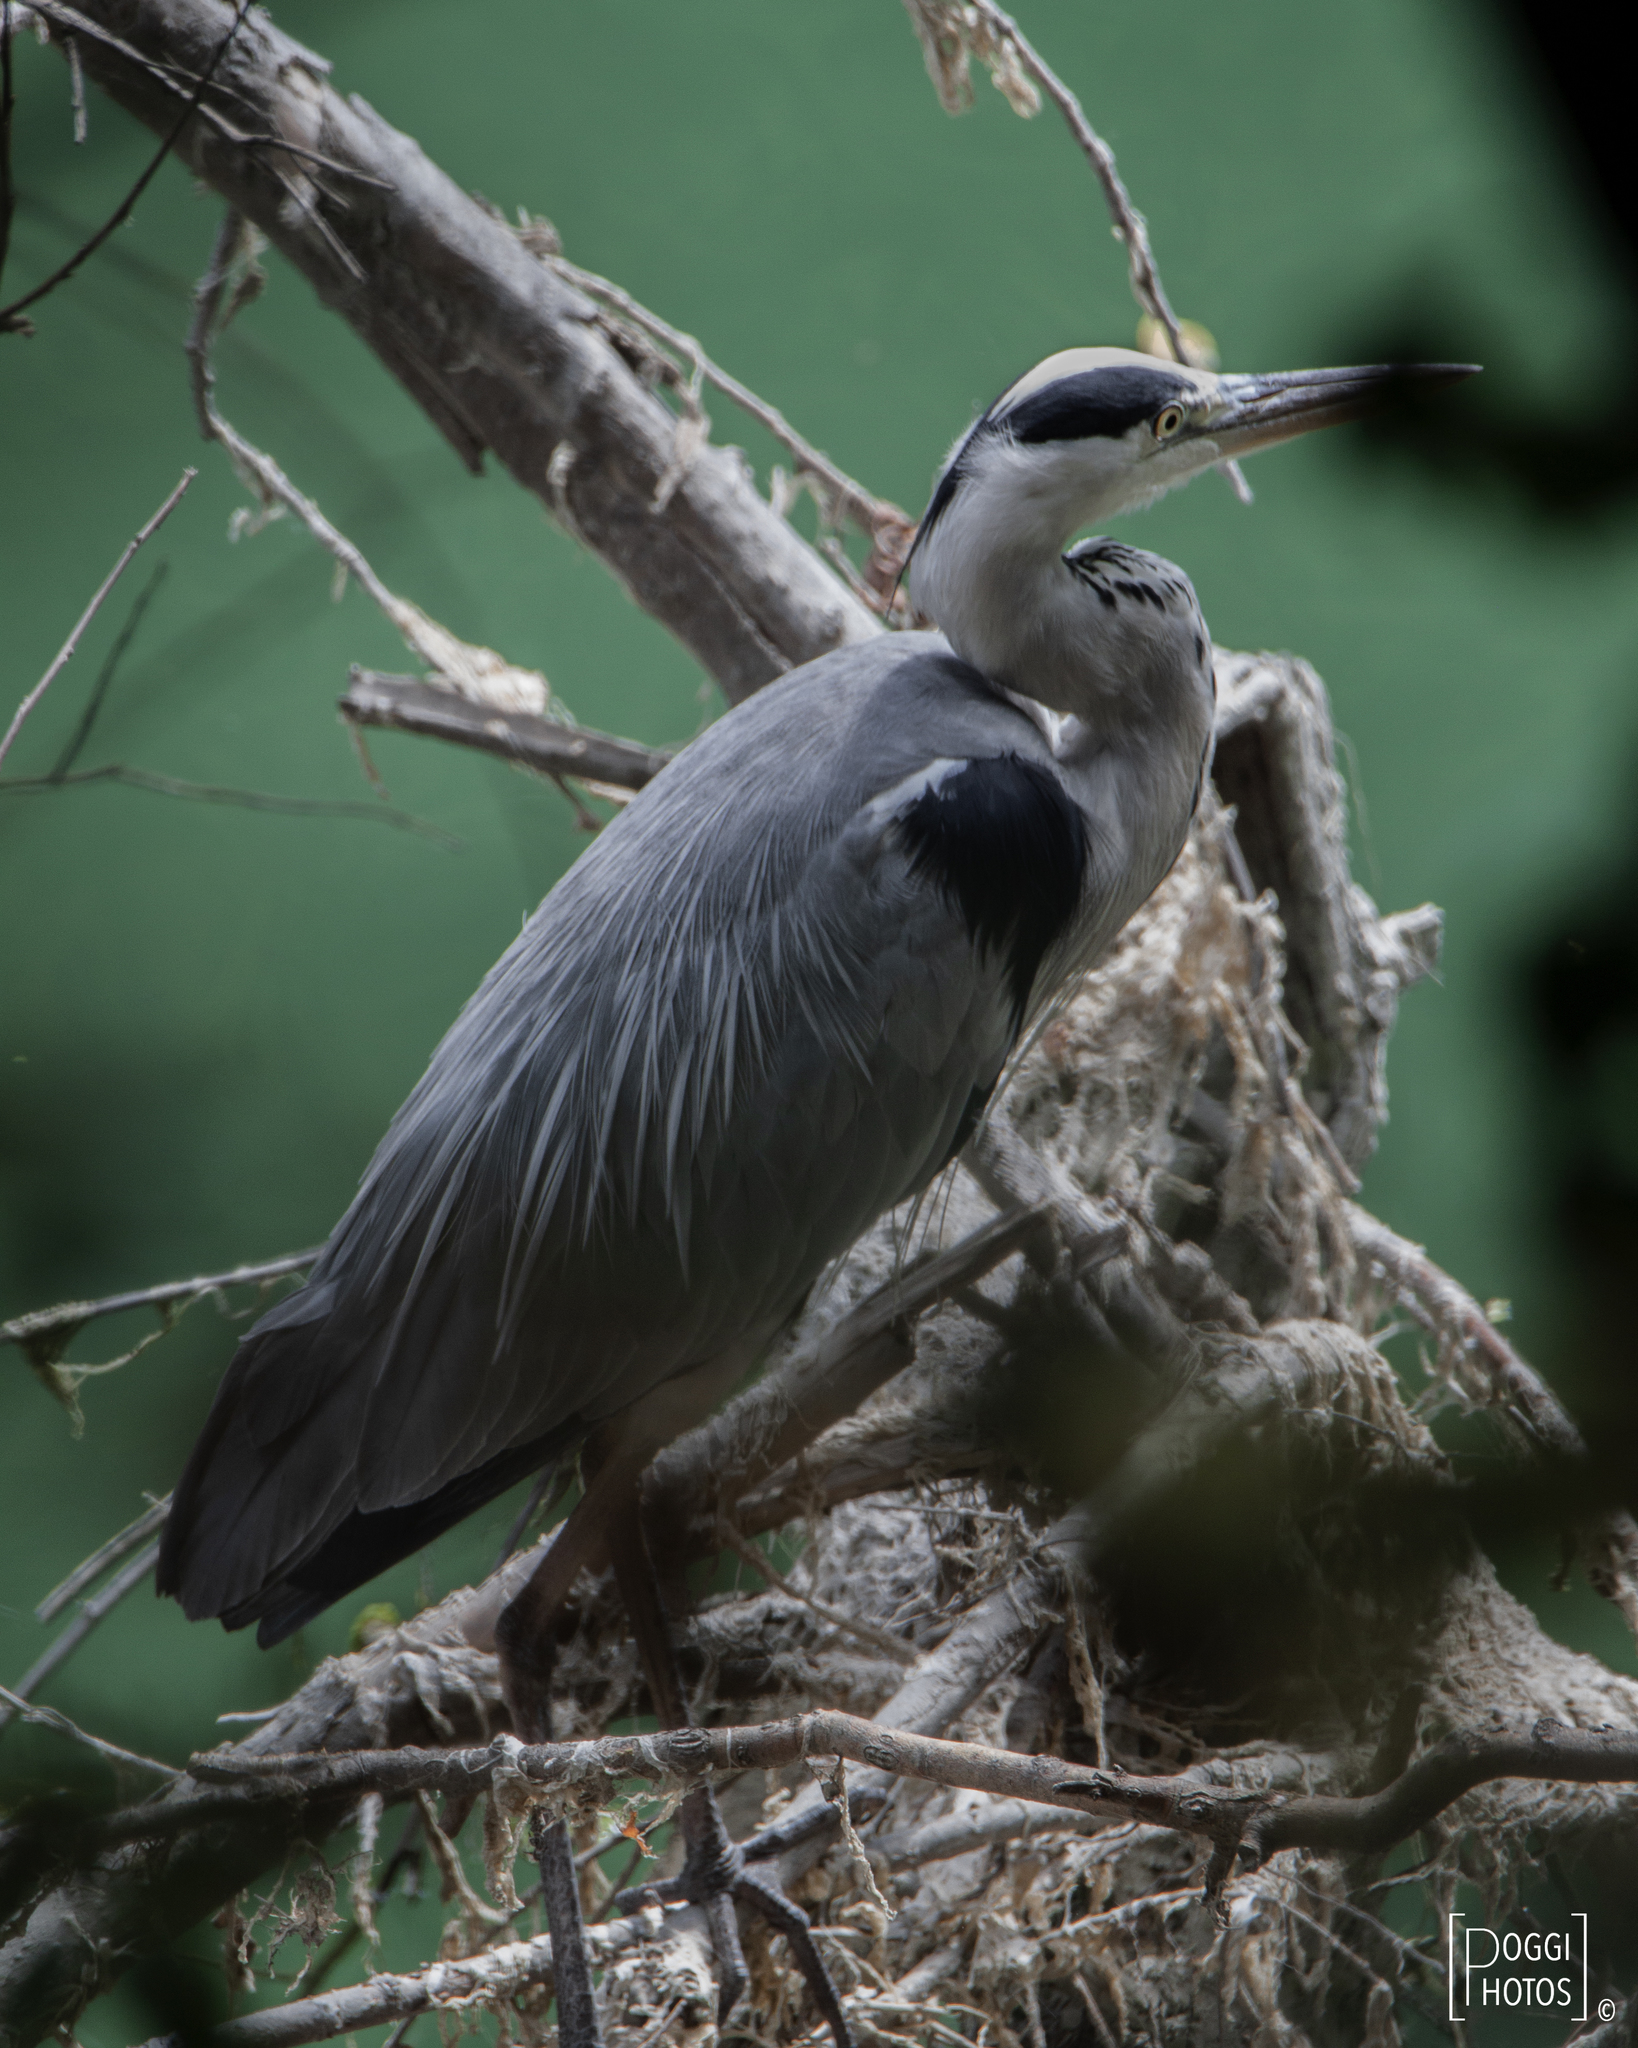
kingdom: Animalia
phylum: Chordata
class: Aves
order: Pelecaniformes
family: Ardeidae
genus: Ardea
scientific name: Ardea cinerea
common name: Grey heron
